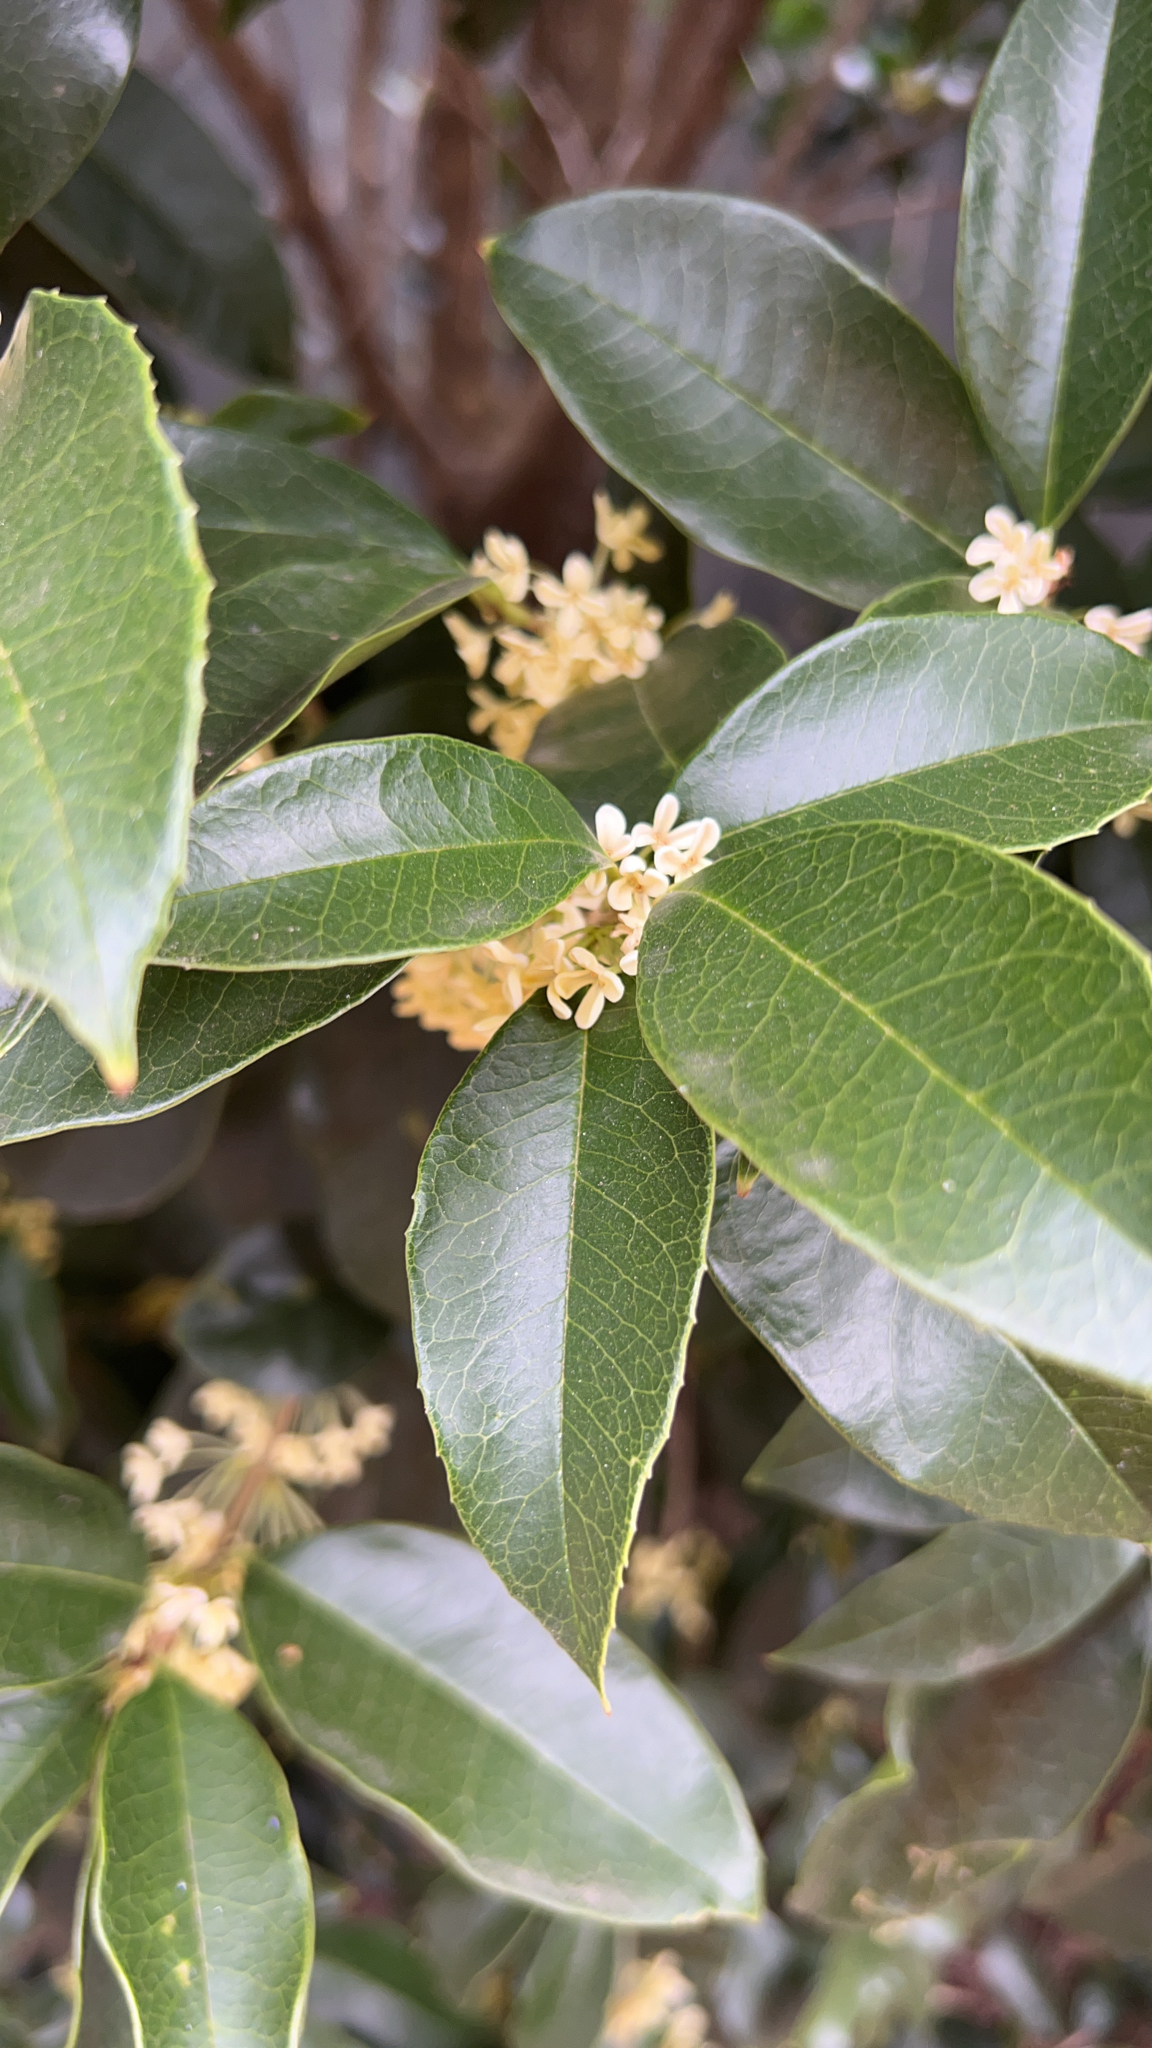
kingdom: Plantae
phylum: Tracheophyta
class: Magnoliopsida
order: Lamiales
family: Oleaceae
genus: Osmanthus
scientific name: Osmanthus fragrans
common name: Sweet osmanthus
